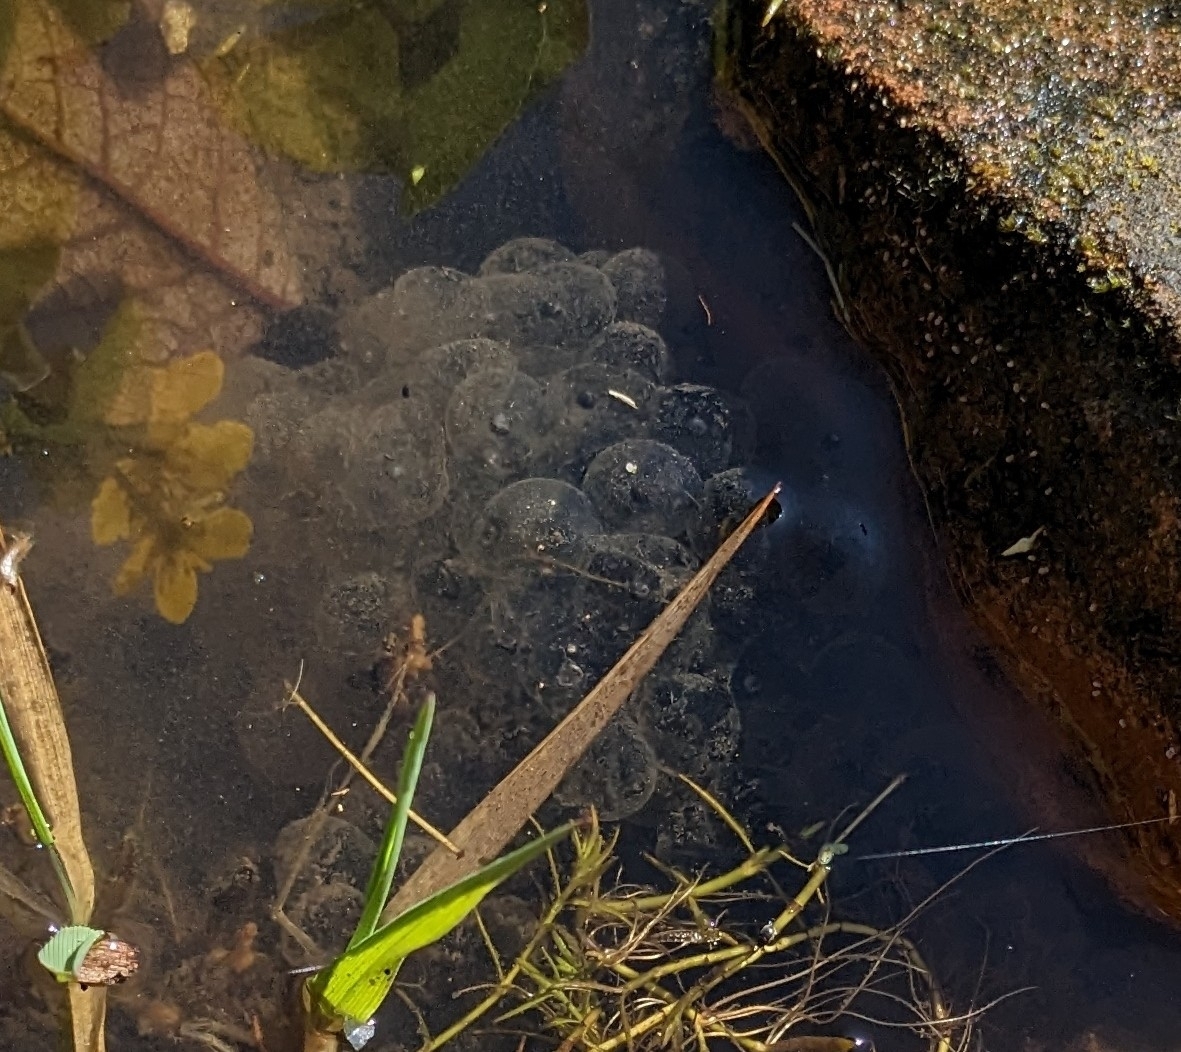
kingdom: Animalia
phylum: Chordata
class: Amphibia
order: Anura
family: Ranidae
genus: Rana
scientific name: Rana temporaria
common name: Common frog
